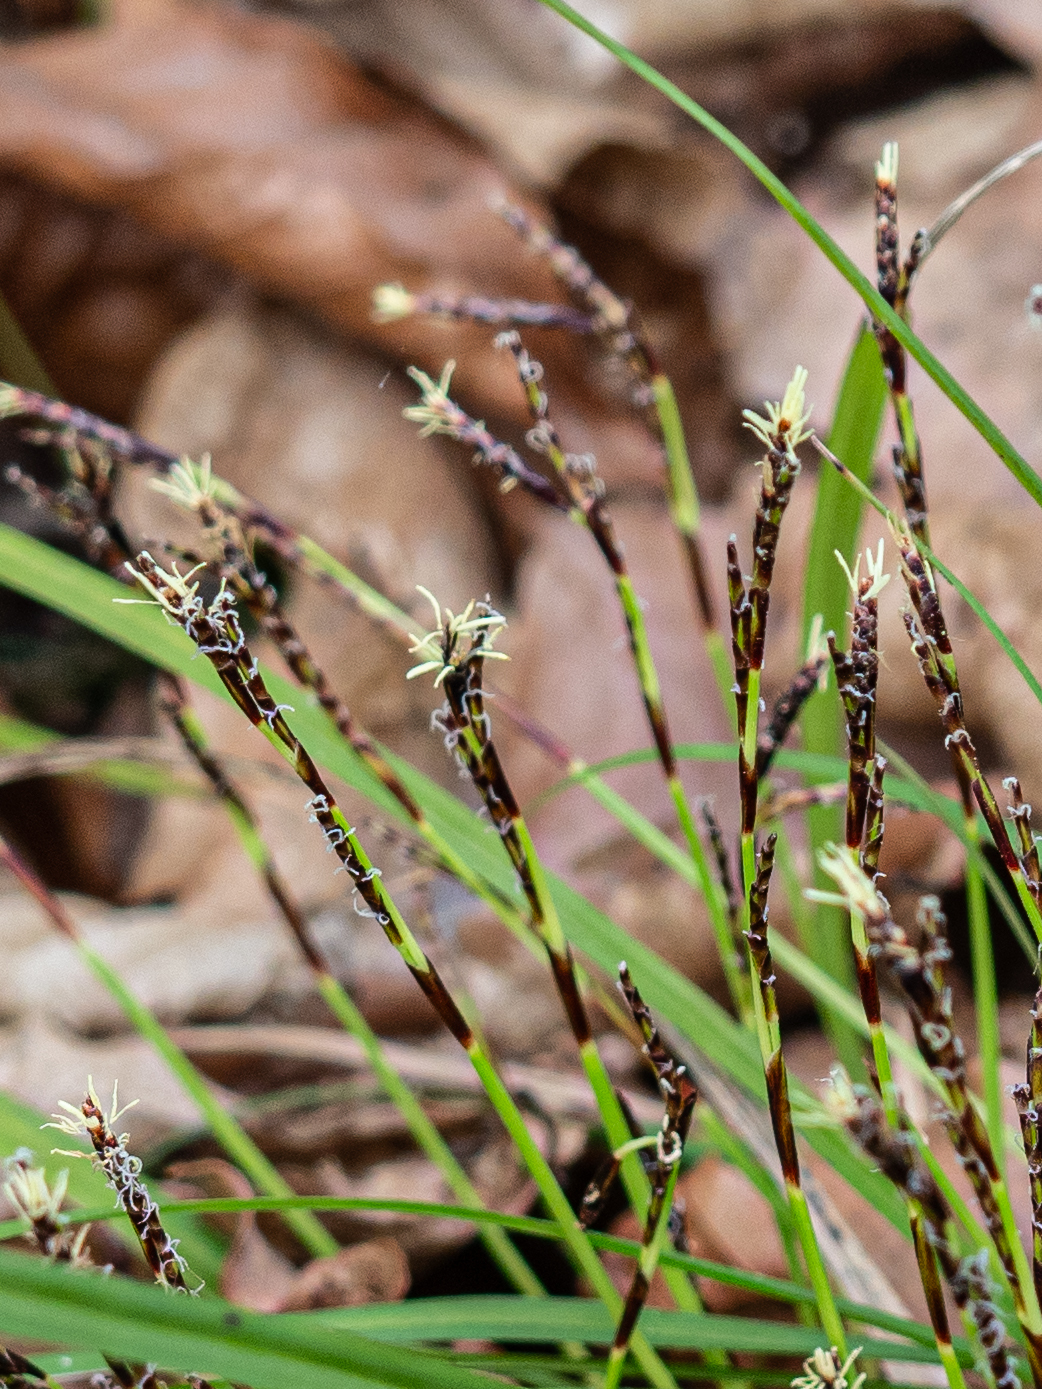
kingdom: Plantae
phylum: Tracheophyta
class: Liliopsida
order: Poales
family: Cyperaceae
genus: Carex
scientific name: Carex digitata
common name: Fingered sedge
